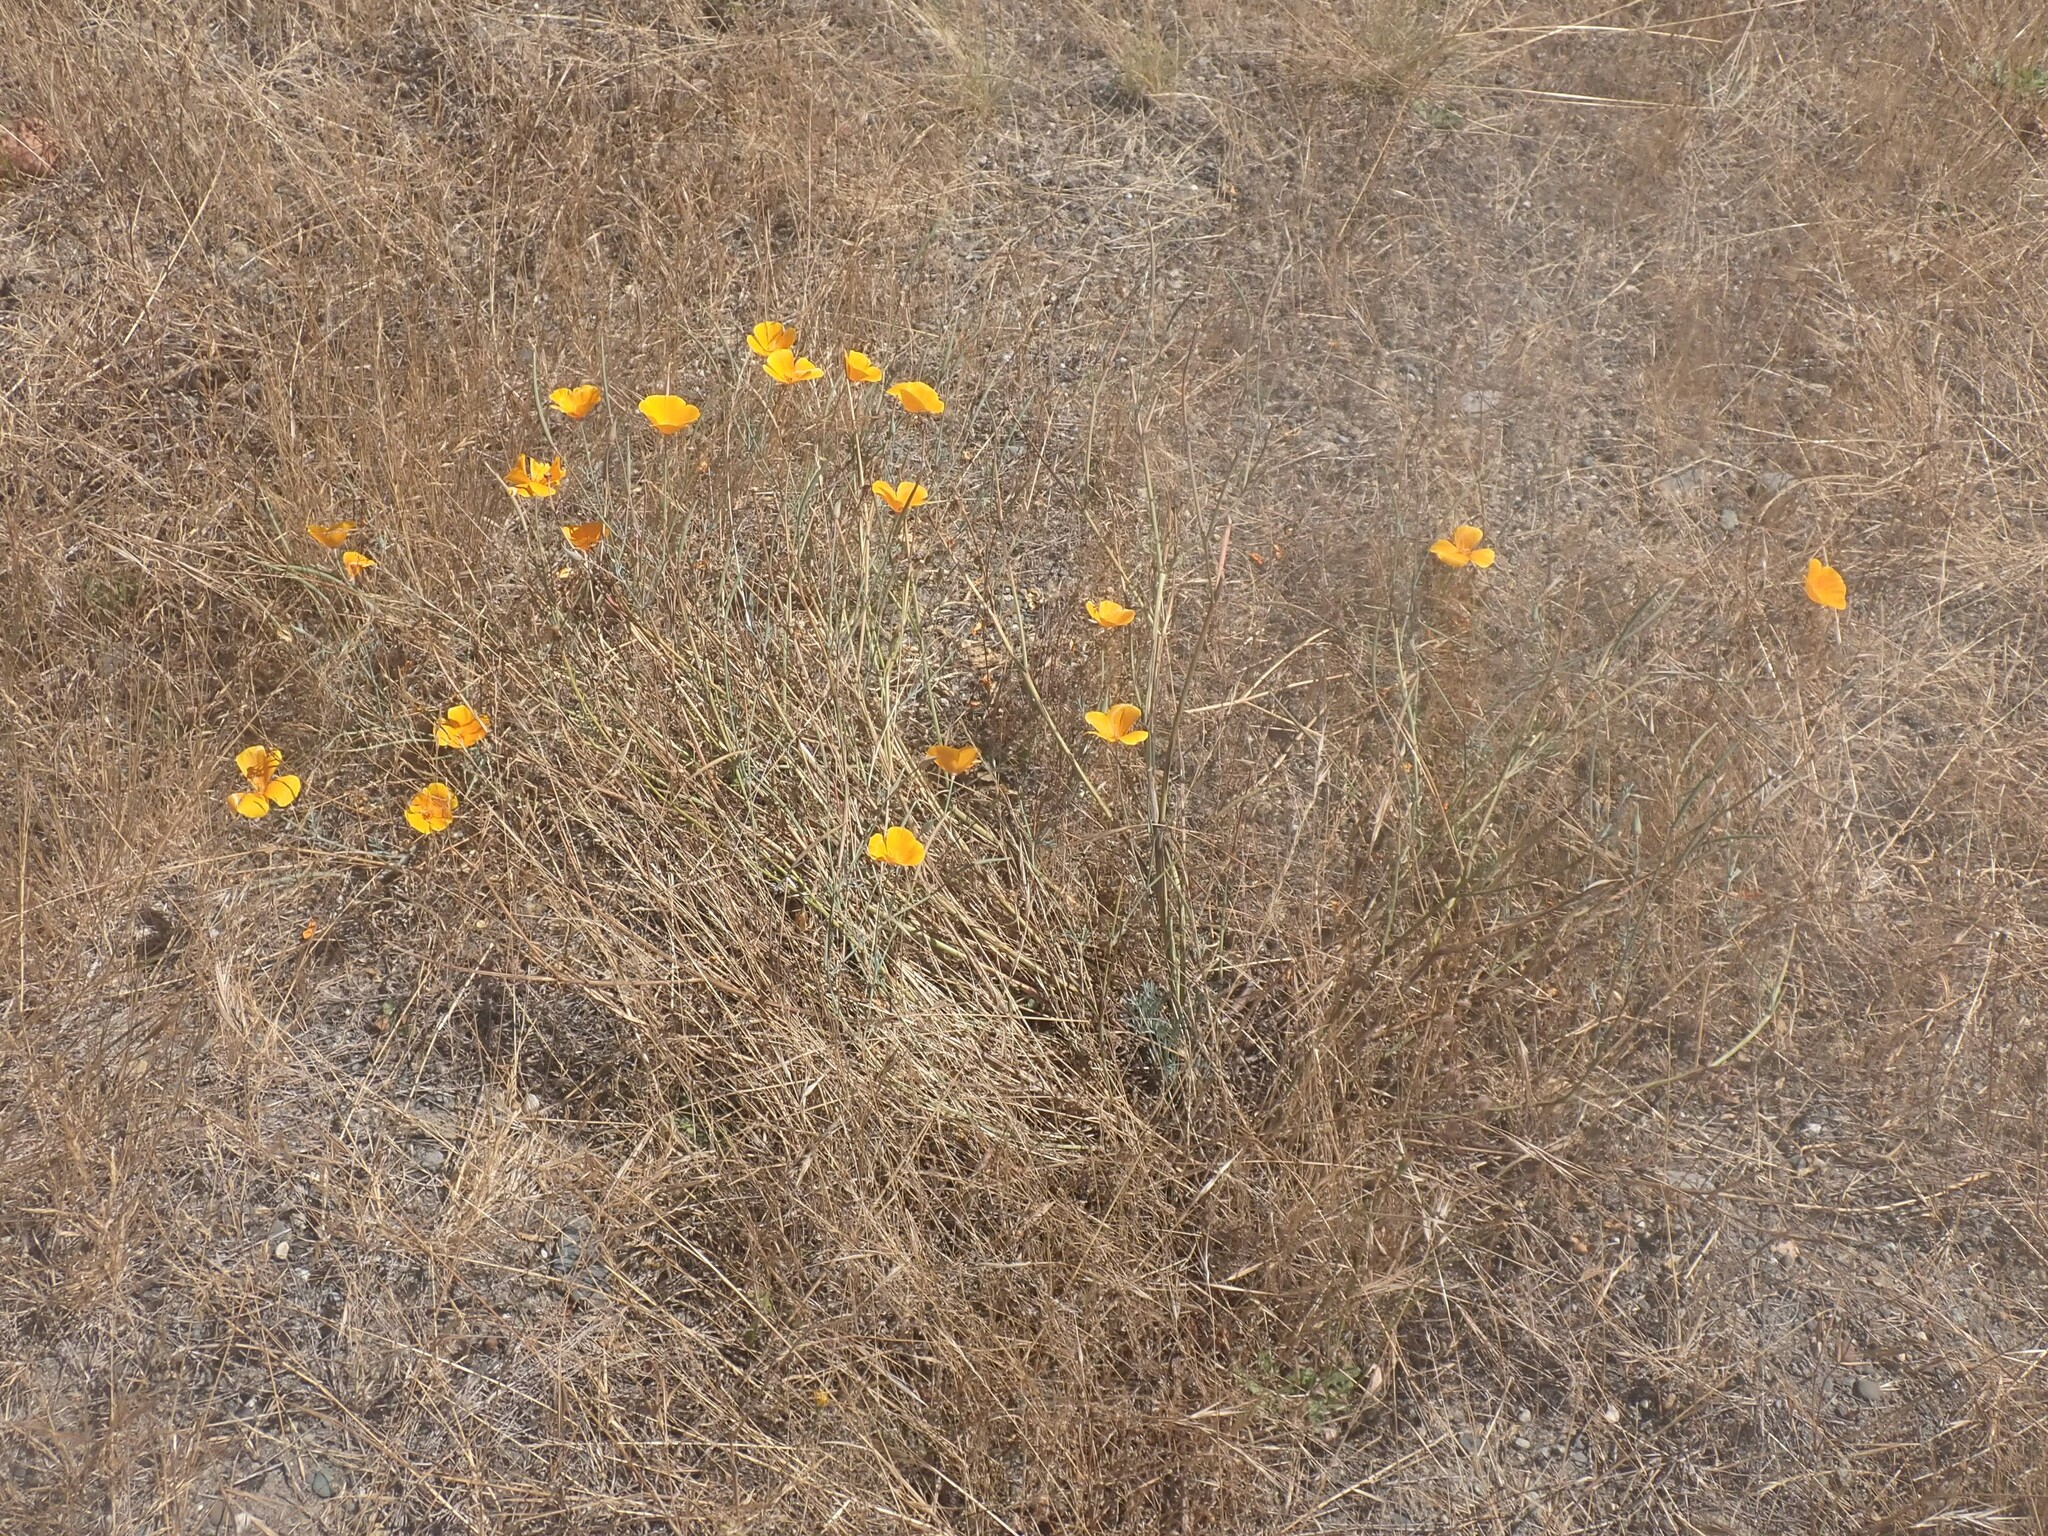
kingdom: Plantae
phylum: Tracheophyta
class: Magnoliopsida
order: Ranunculales
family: Papaveraceae
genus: Eschscholzia
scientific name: Eschscholzia californica
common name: California poppy
